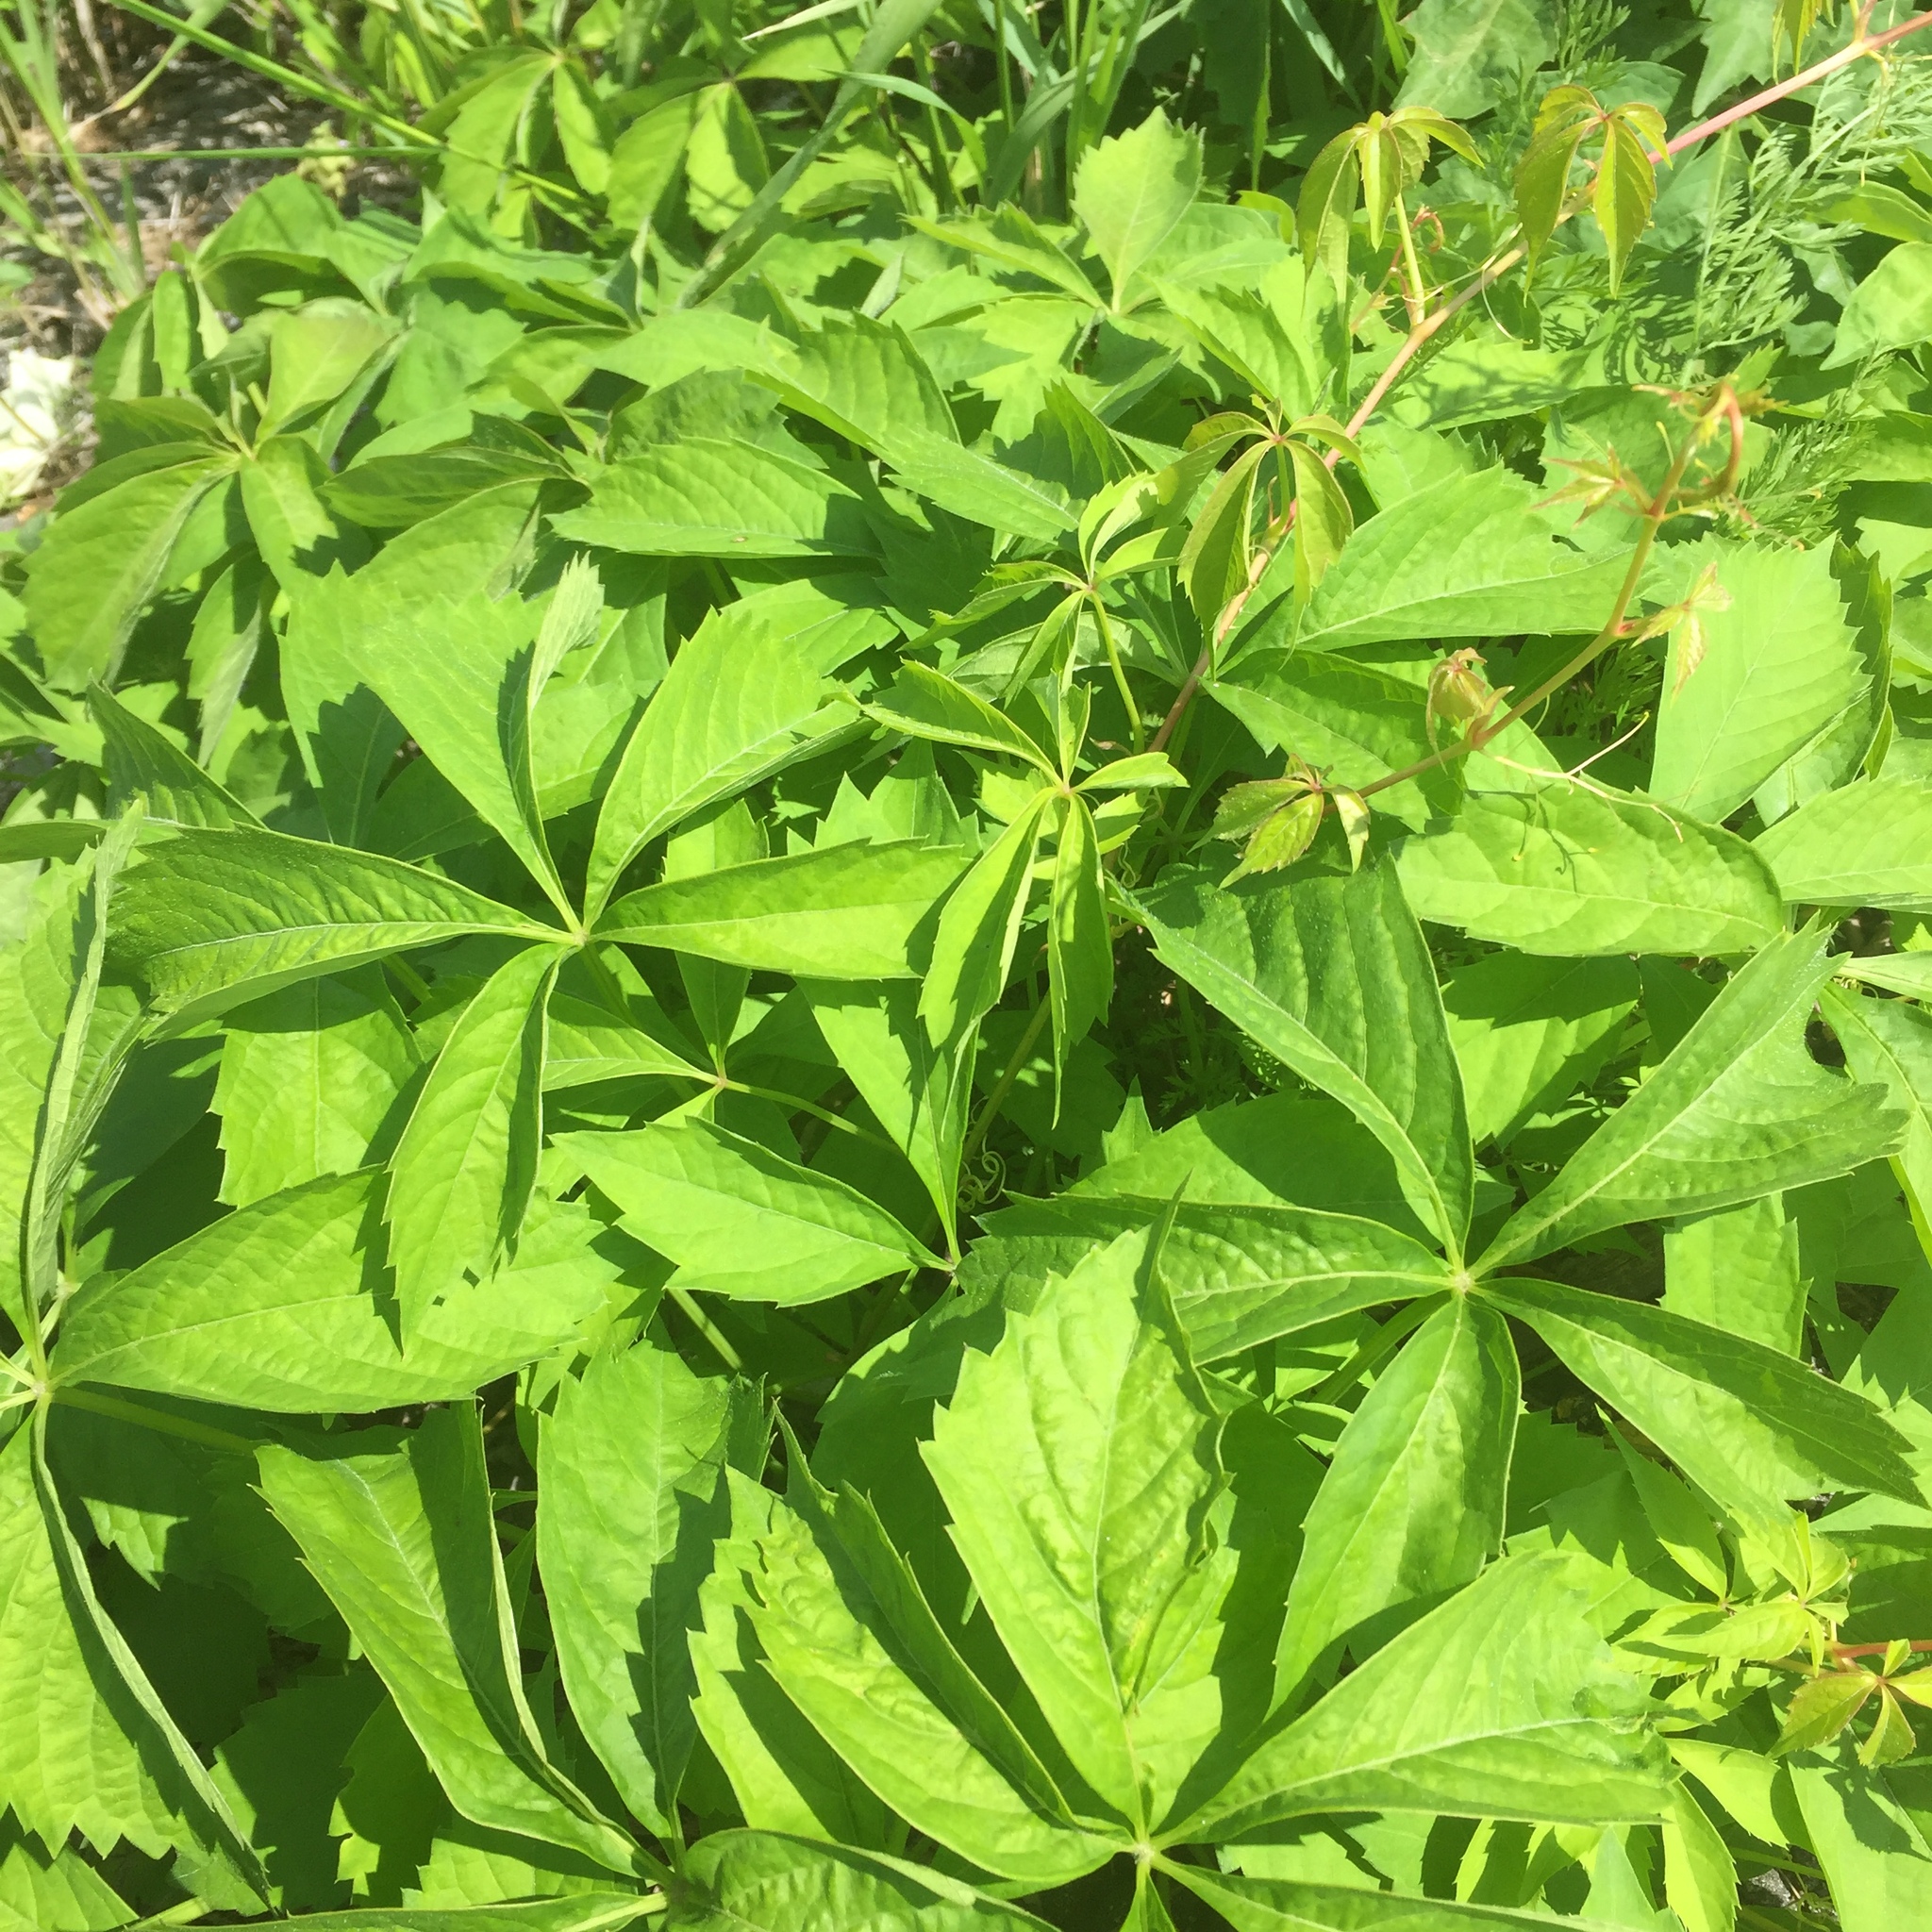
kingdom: Plantae
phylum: Tracheophyta
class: Magnoliopsida
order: Vitales
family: Vitaceae
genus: Parthenocissus
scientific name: Parthenocissus quinquefolia
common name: Virginia-creeper
